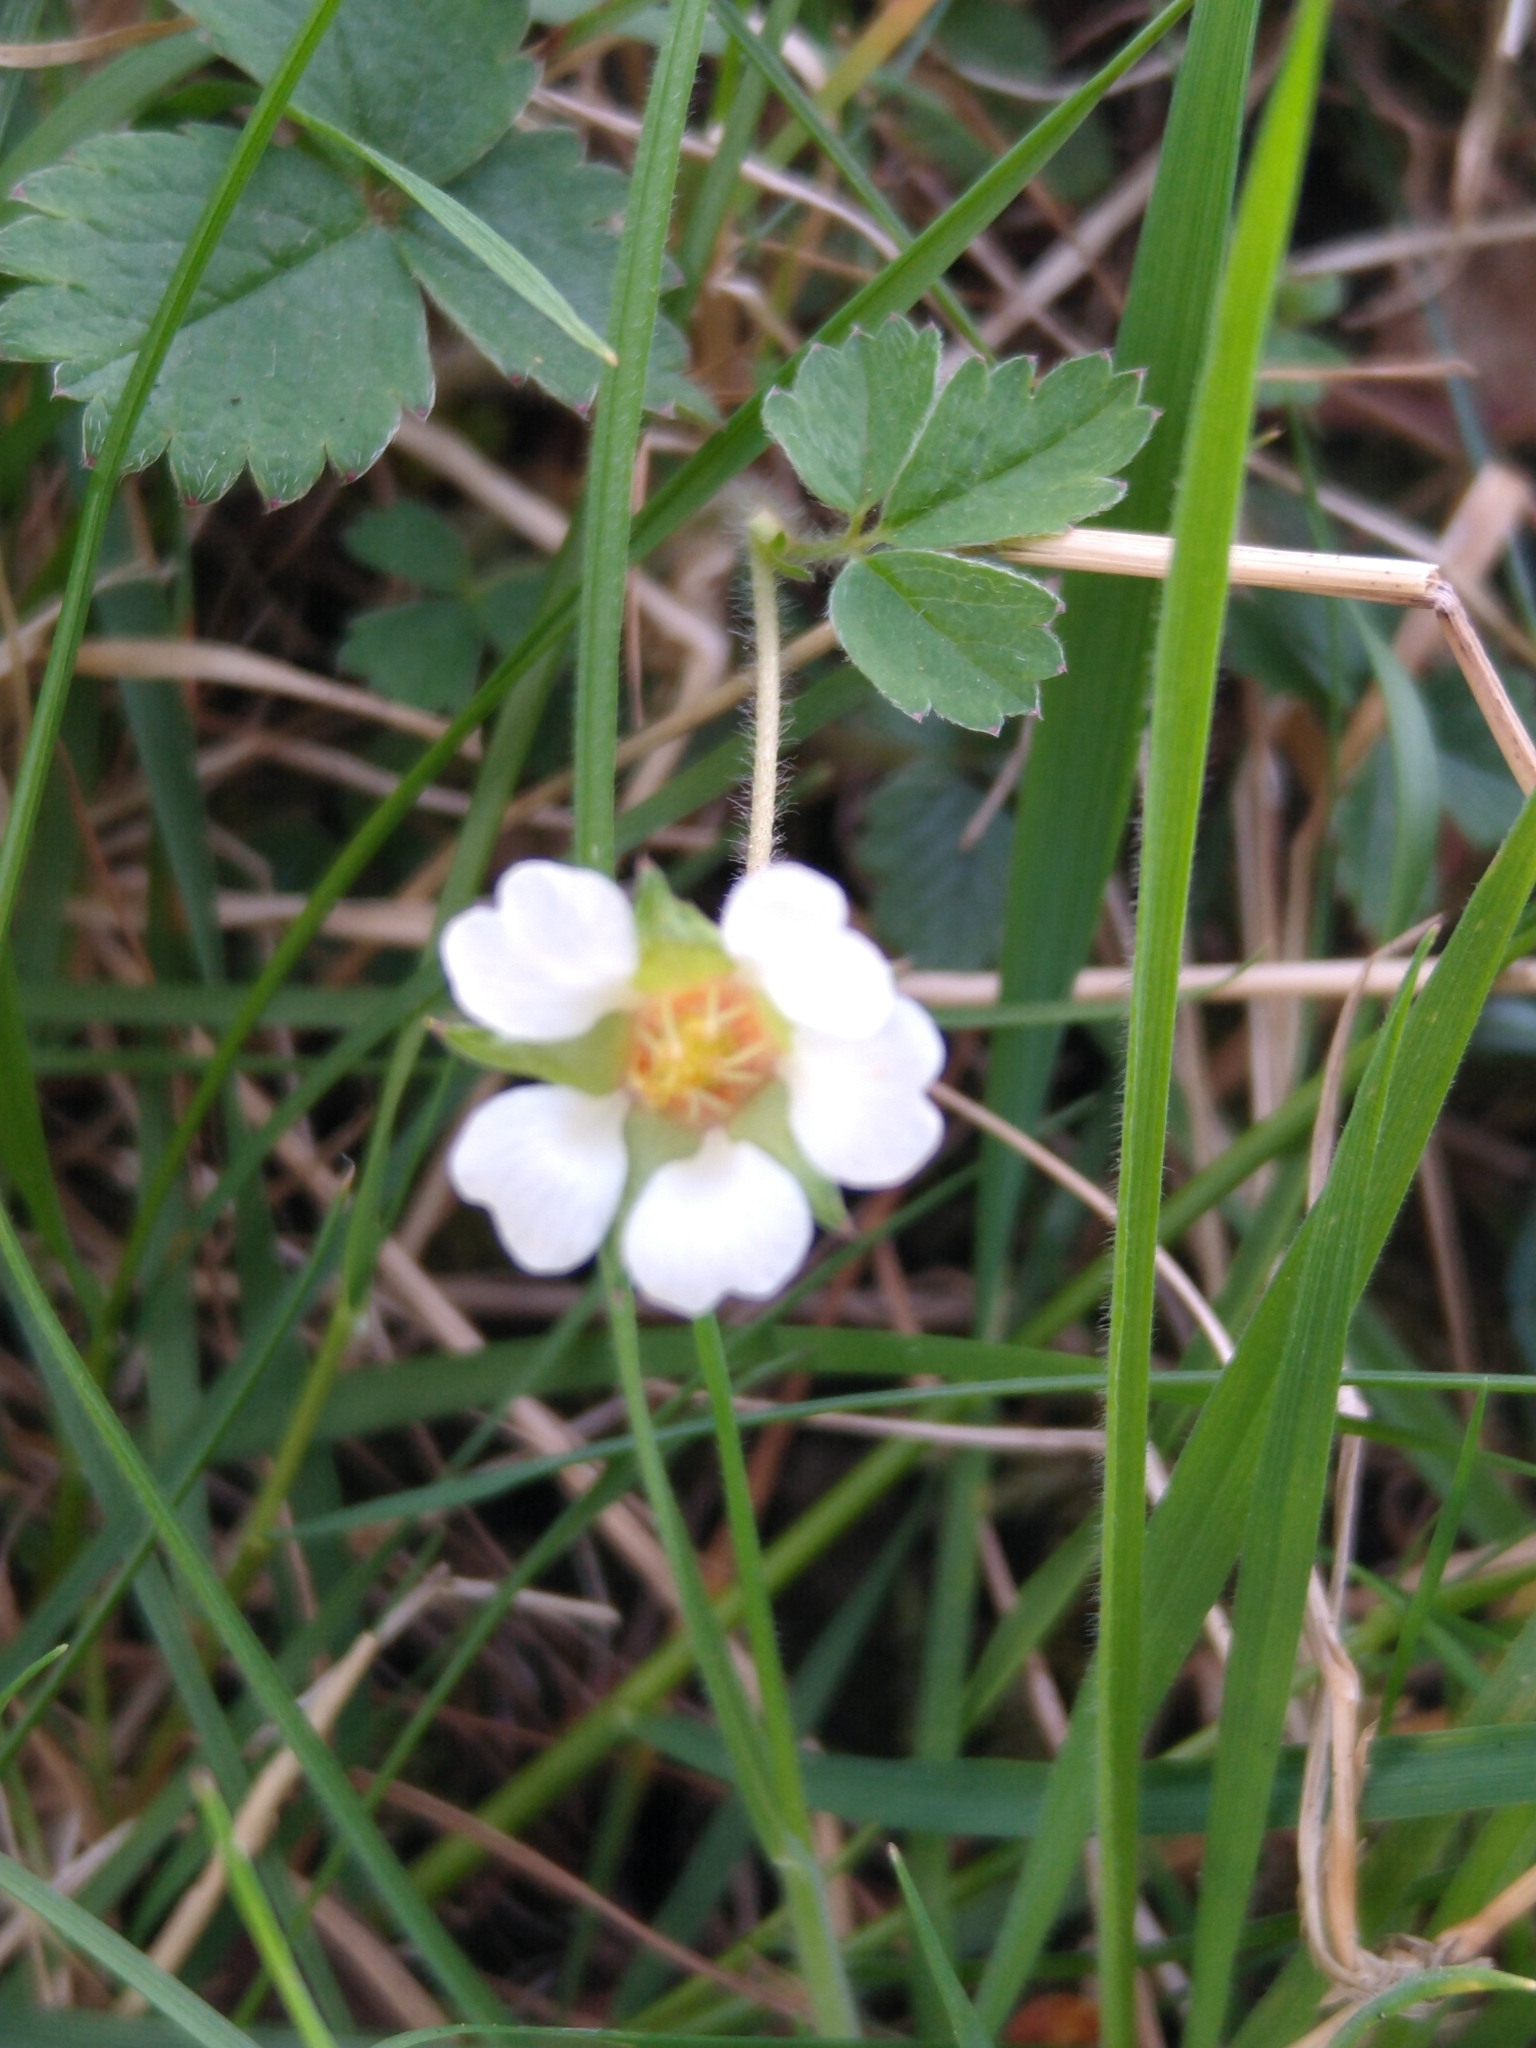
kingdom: Plantae
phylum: Tracheophyta
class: Magnoliopsida
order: Rosales
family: Rosaceae
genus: Potentilla
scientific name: Potentilla sterilis
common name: Barren strawberry
